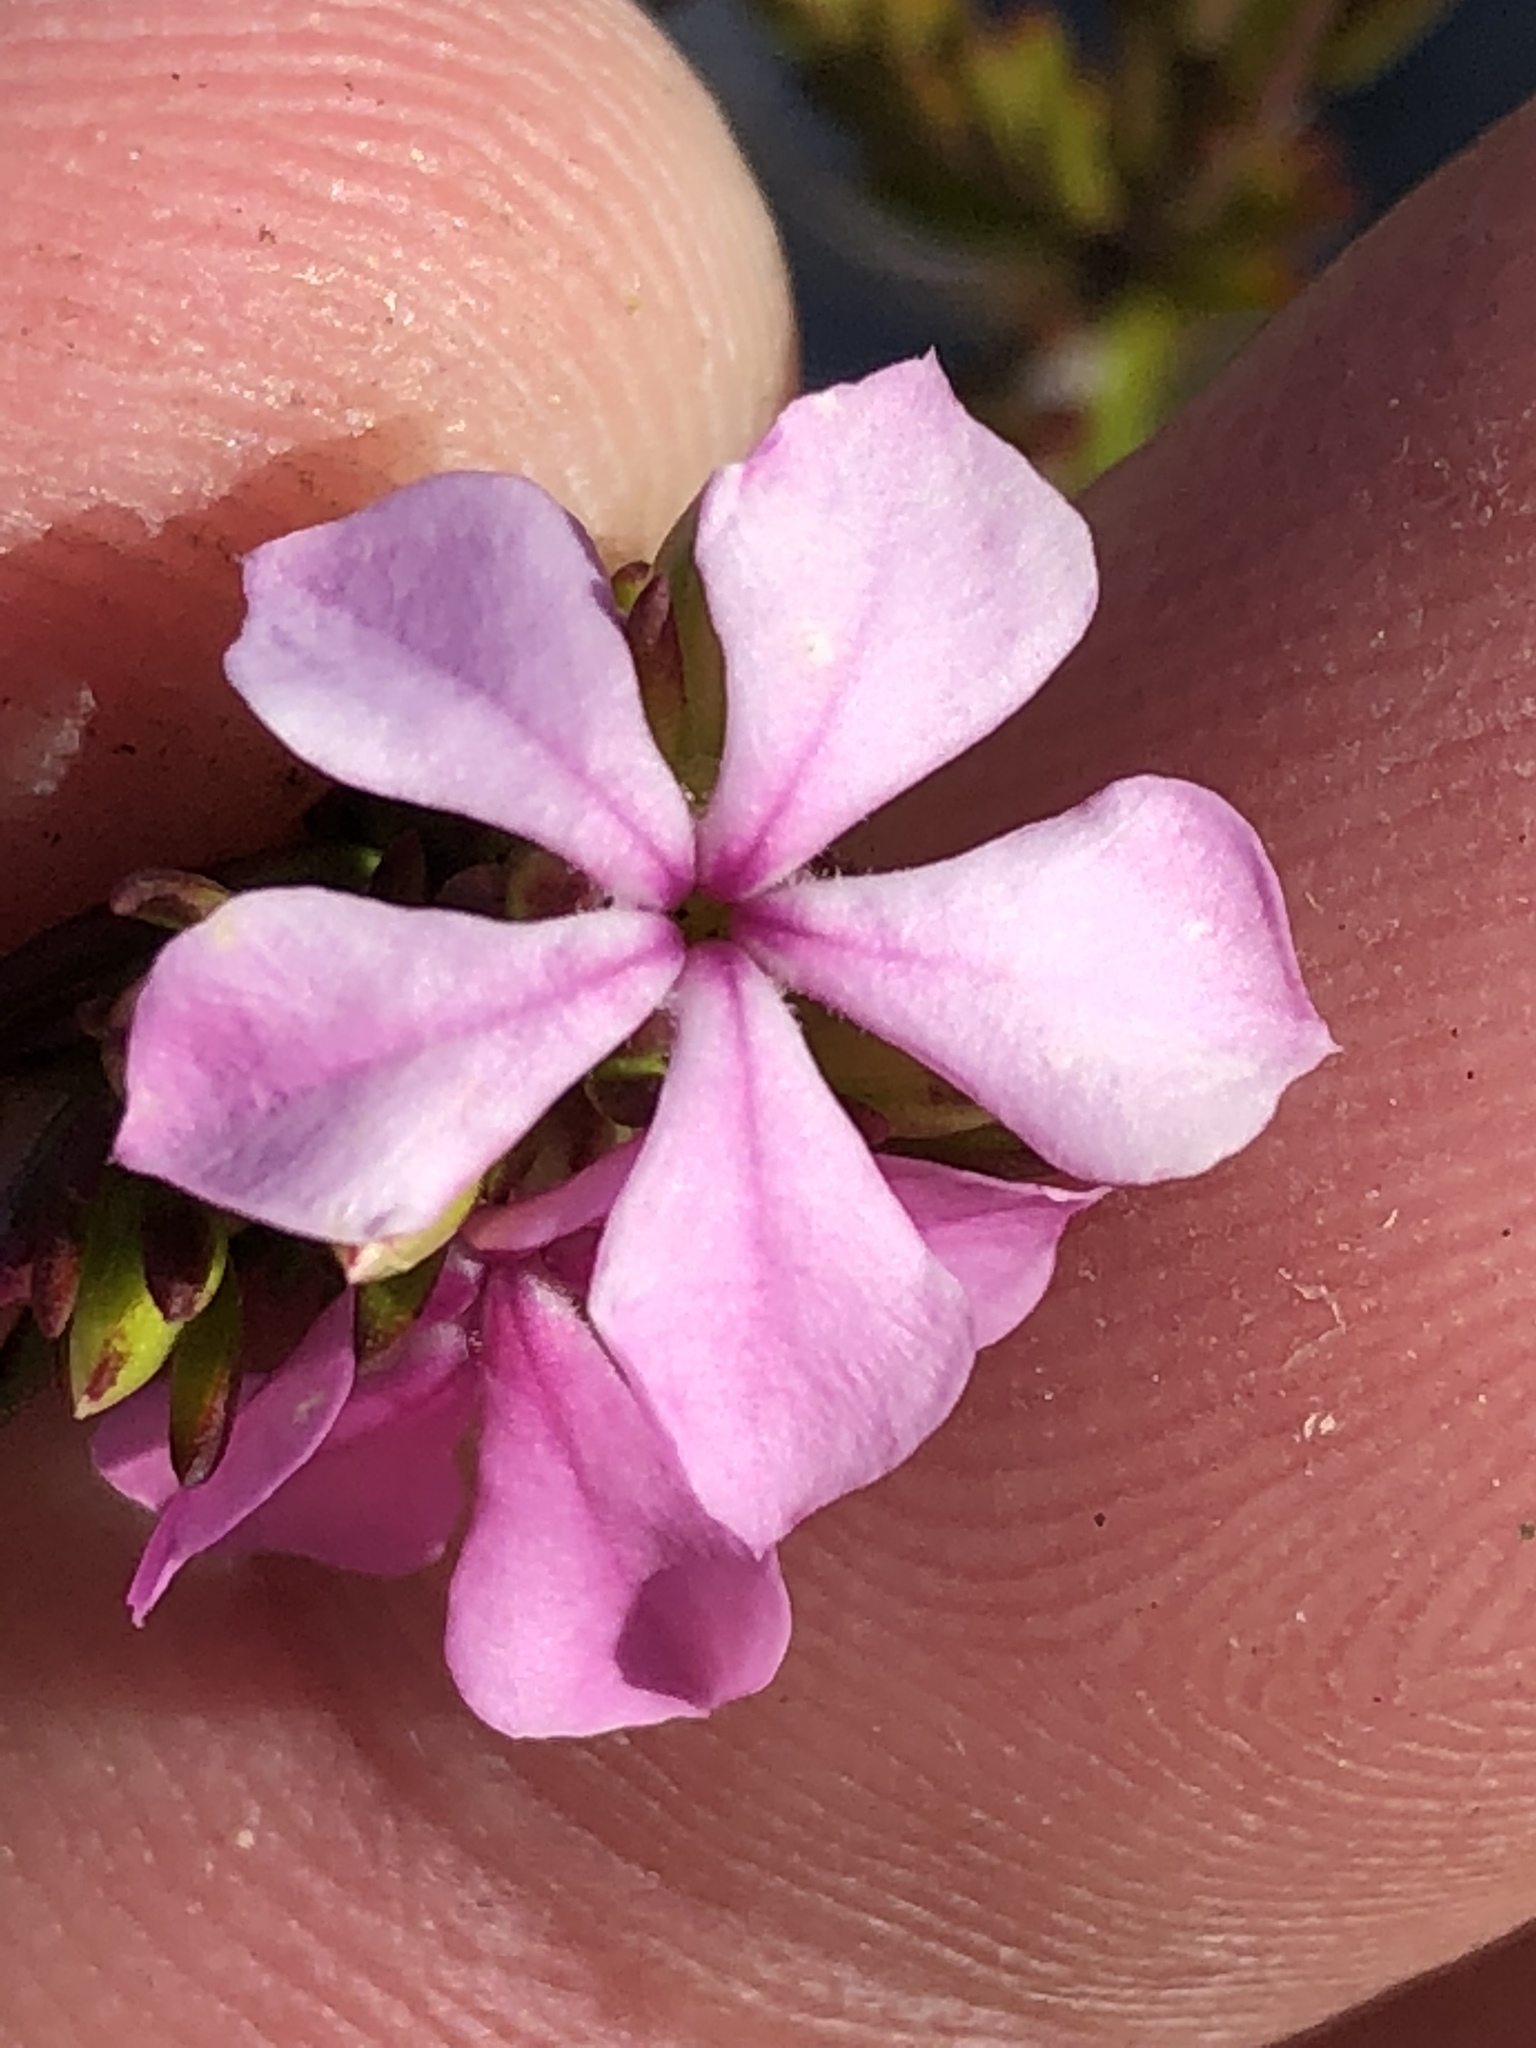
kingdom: Plantae
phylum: Tracheophyta
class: Magnoliopsida
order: Sapindales
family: Rutaceae
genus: Acmadenia
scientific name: Acmadenia obtusata
